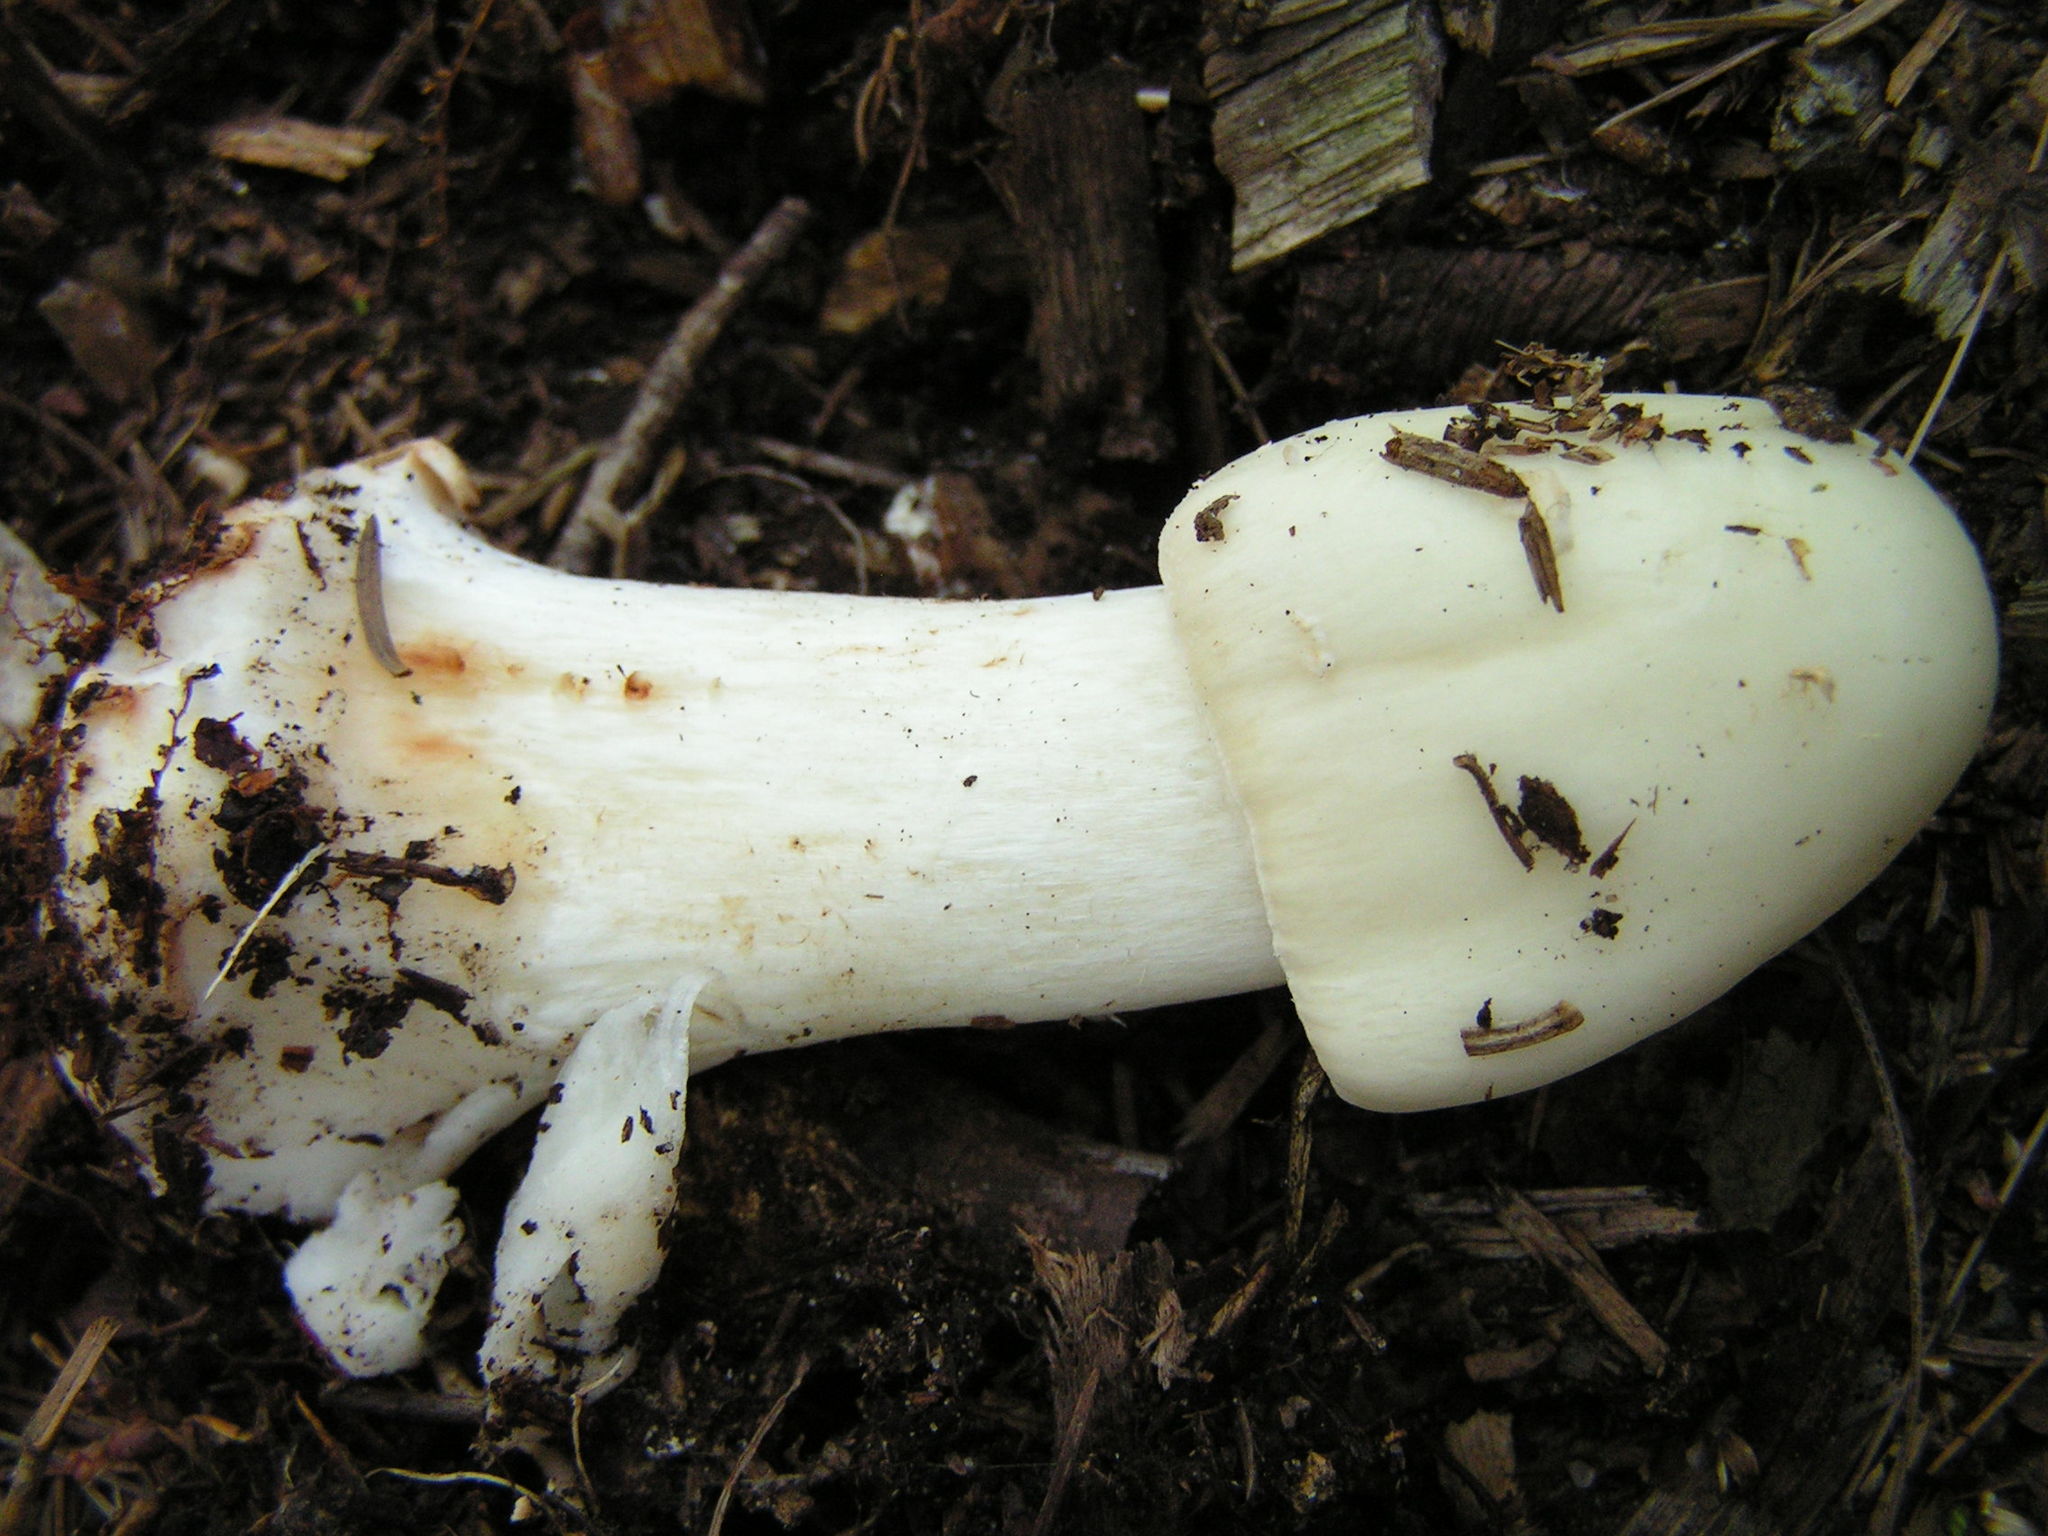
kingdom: Fungi
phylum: Basidiomycota
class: Agaricomycetes
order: Agaricales
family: Amanitaceae
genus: Amanita
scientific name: Amanita brunnescens
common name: Brown american star-footed amanita
